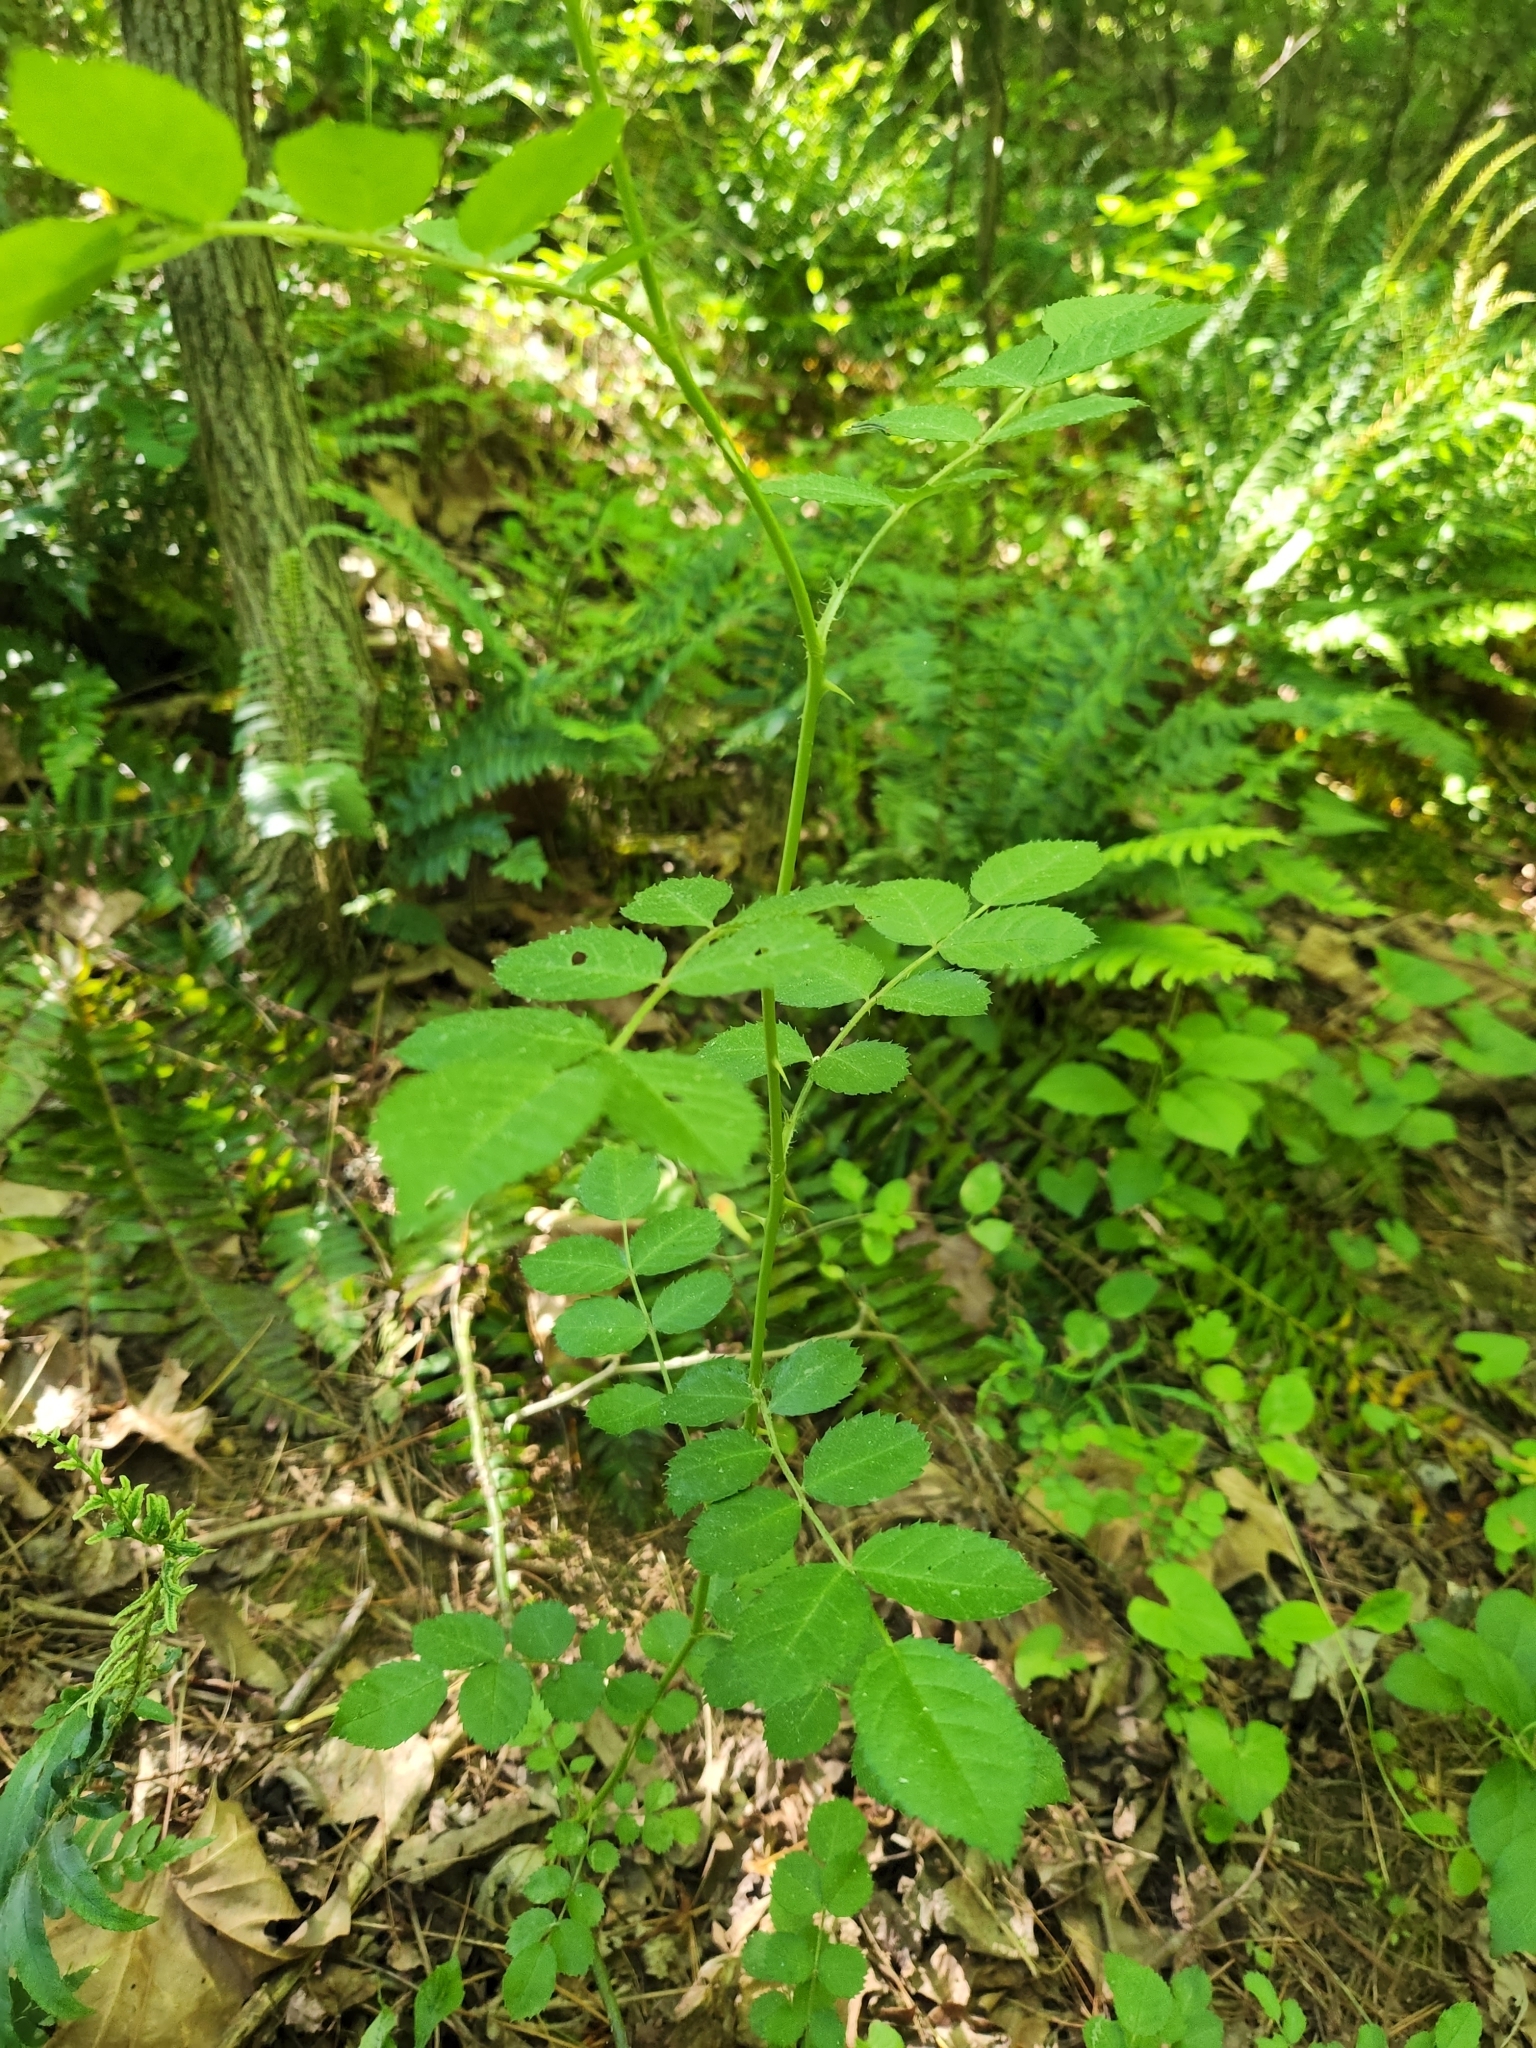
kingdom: Plantae
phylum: Tracheophyta
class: Magnoliopsida
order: Rosales
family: Rosaceae
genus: Rosa
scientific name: Rosa multiflora
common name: Multiflora rose
